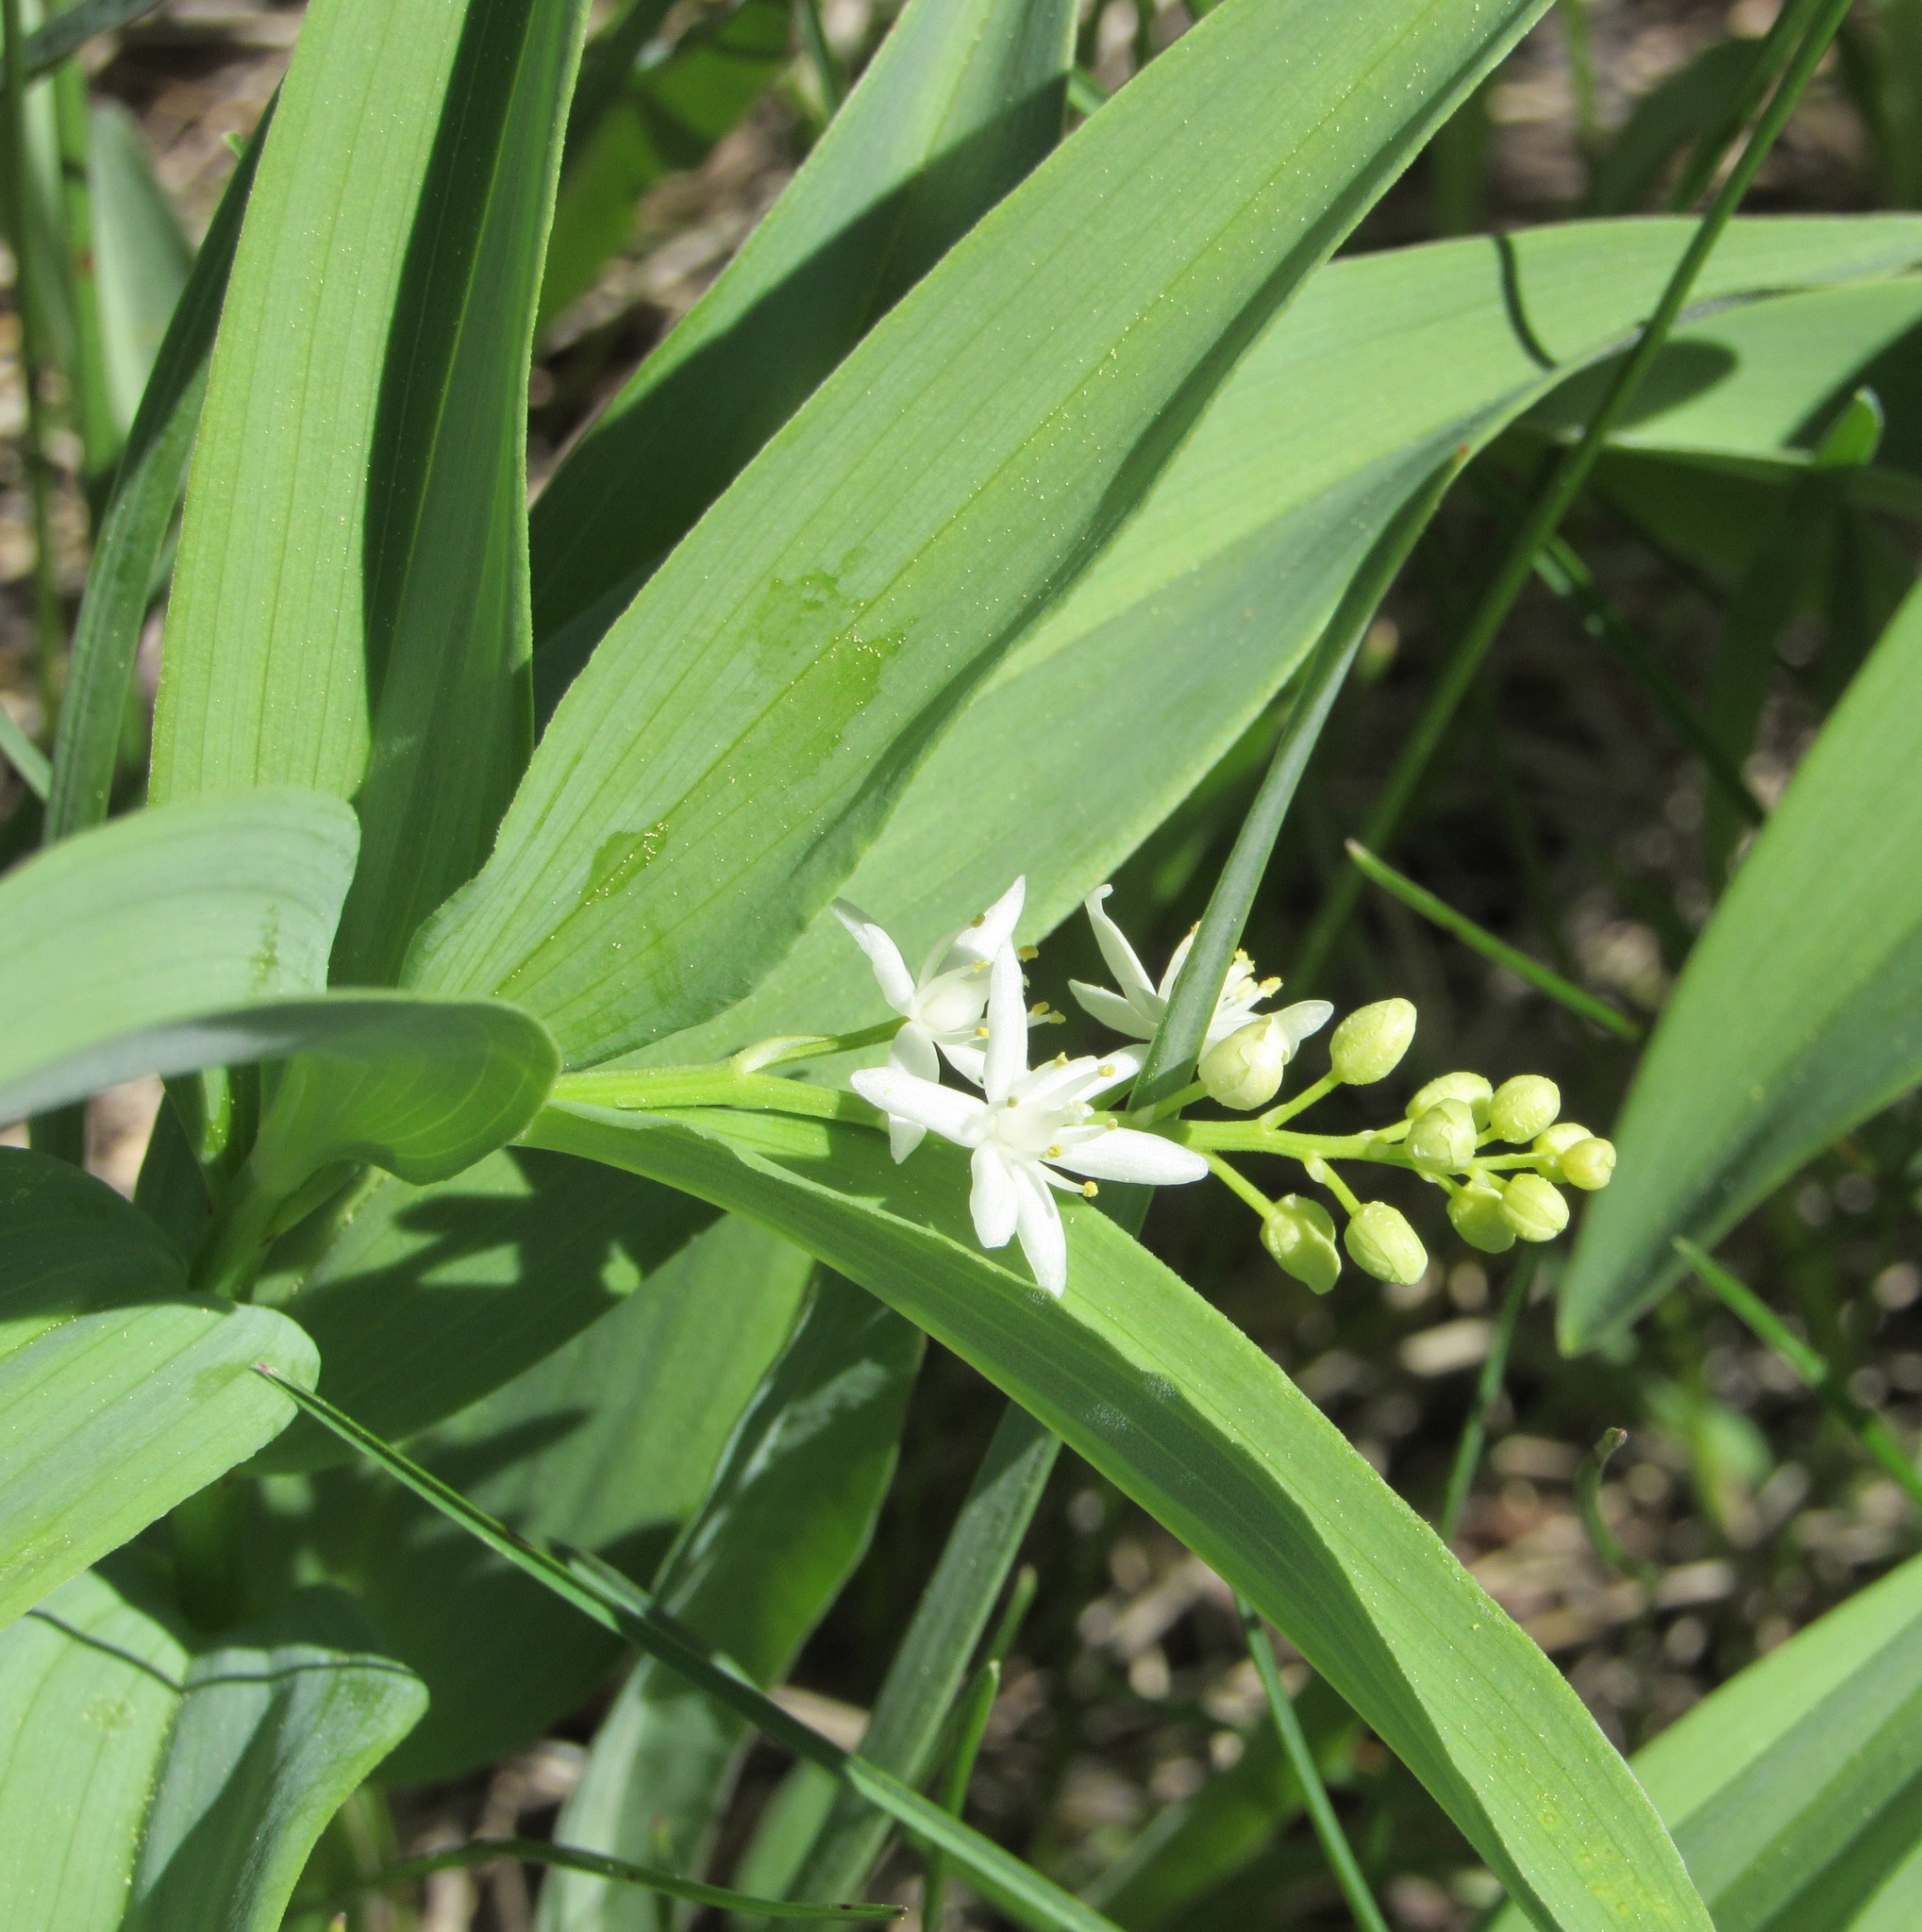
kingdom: Plantae
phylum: Tracheophyta
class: Liliopsida
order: Asparagales
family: Asparagaceae
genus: Maianthemum
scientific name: Maianthemum stellatum
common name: Little false solomon's seal
